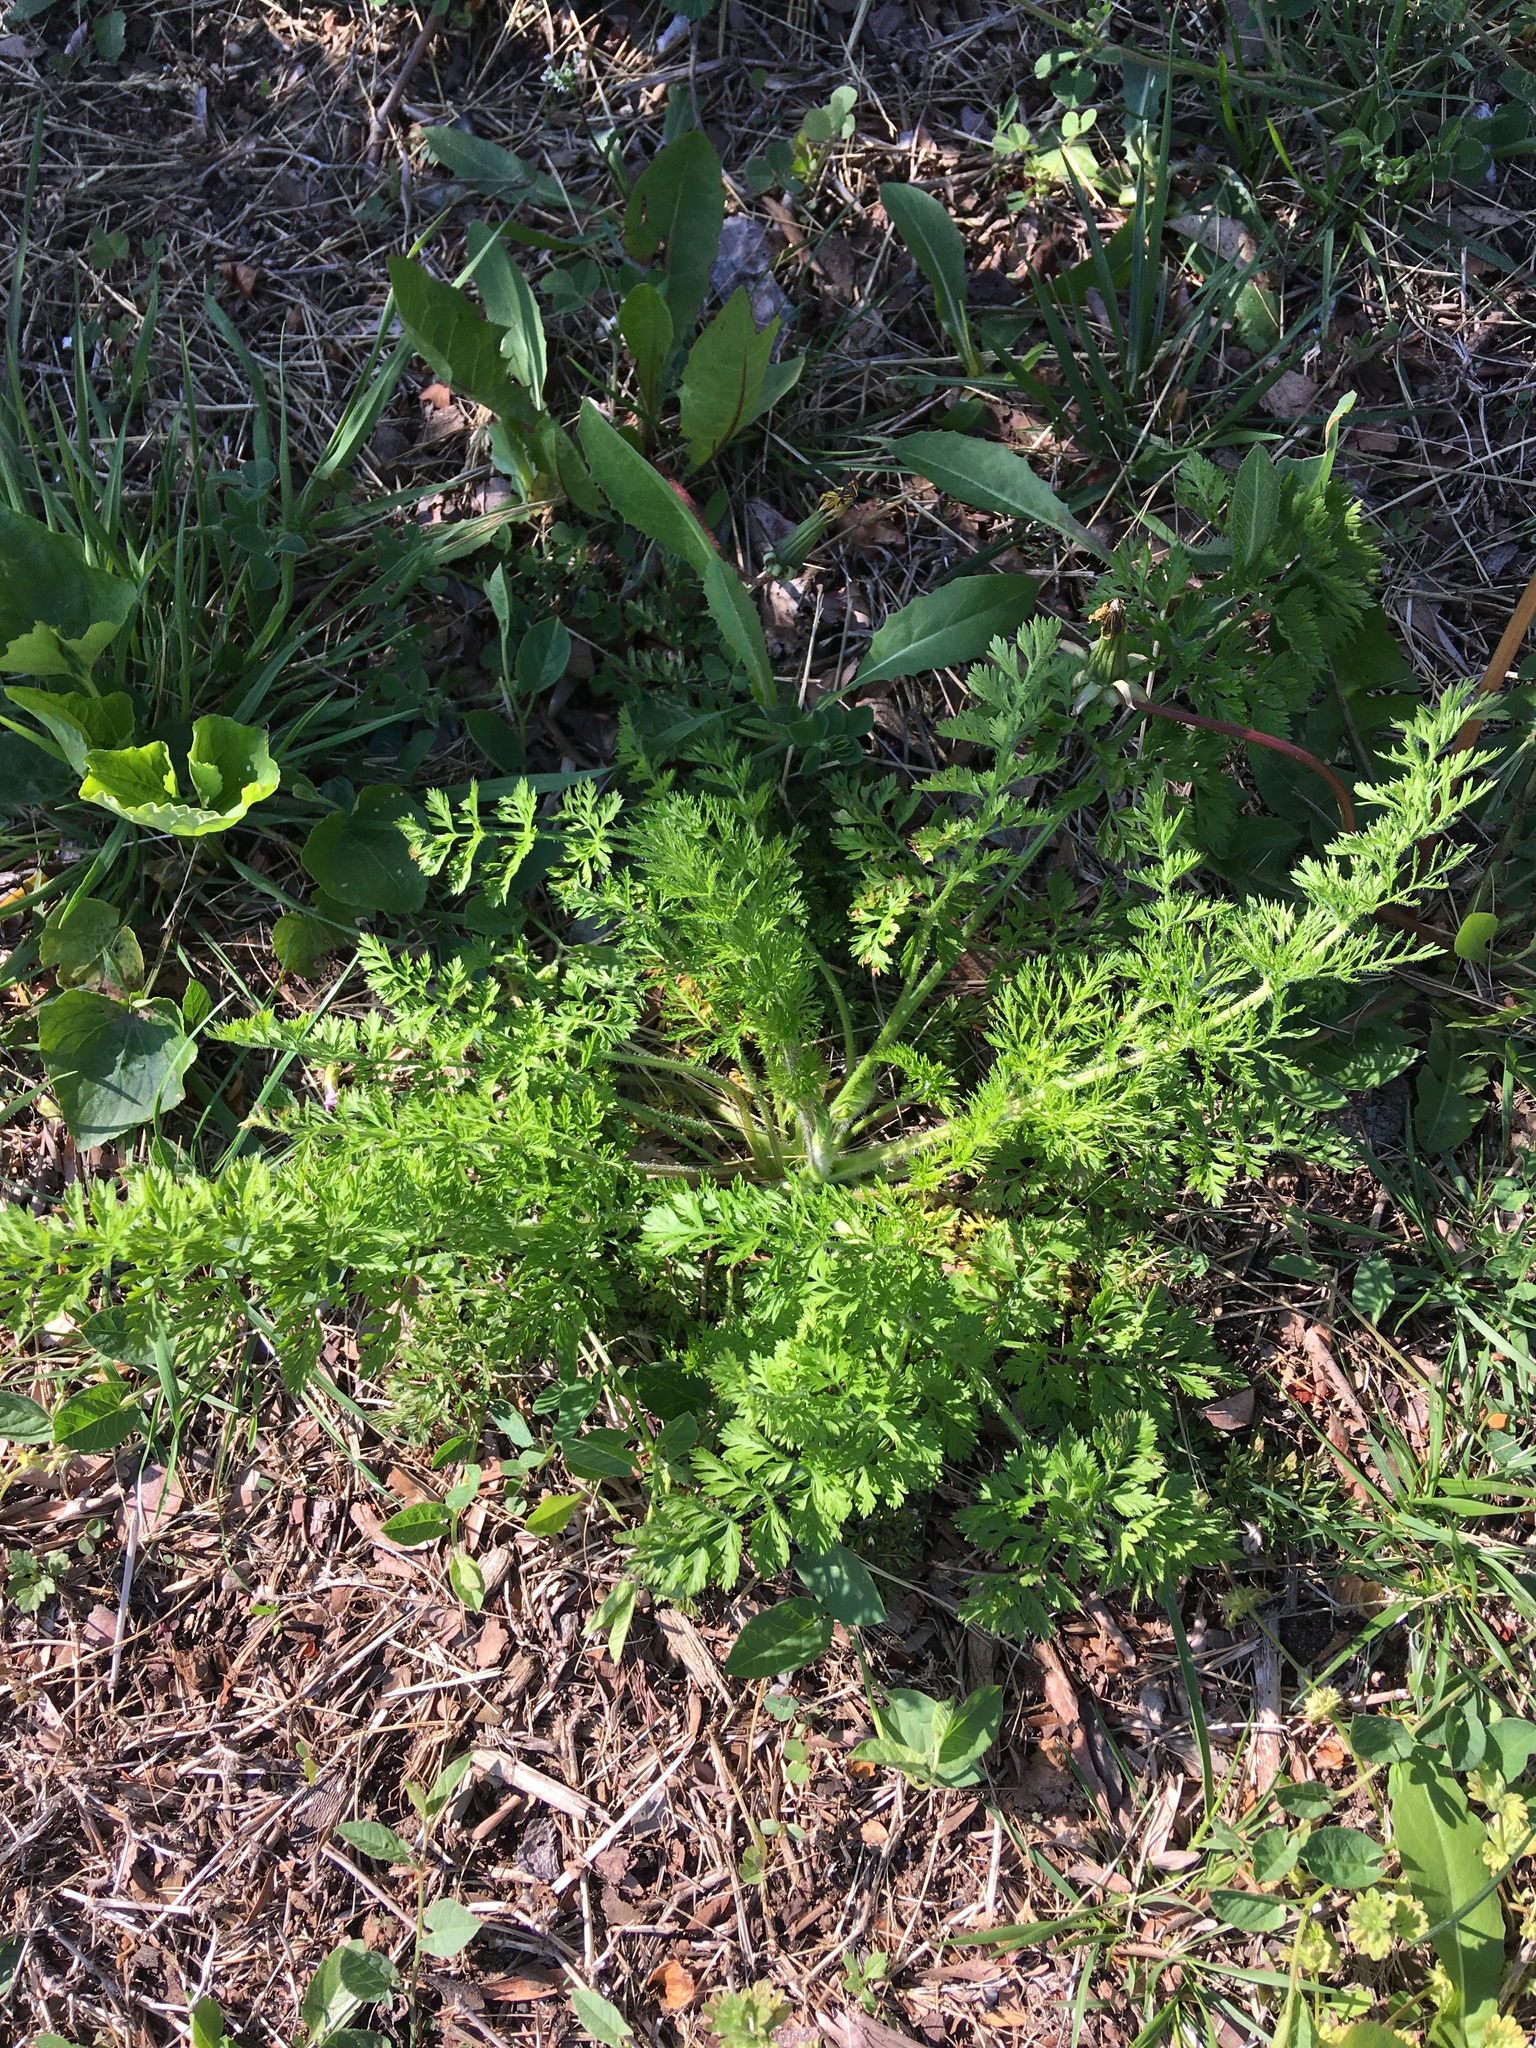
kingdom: Plantae
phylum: Tracheophyta
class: Magnoliopsida
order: Apiales
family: Apiaceae
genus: Daucus
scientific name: Daucus carota
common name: Wild carrot
